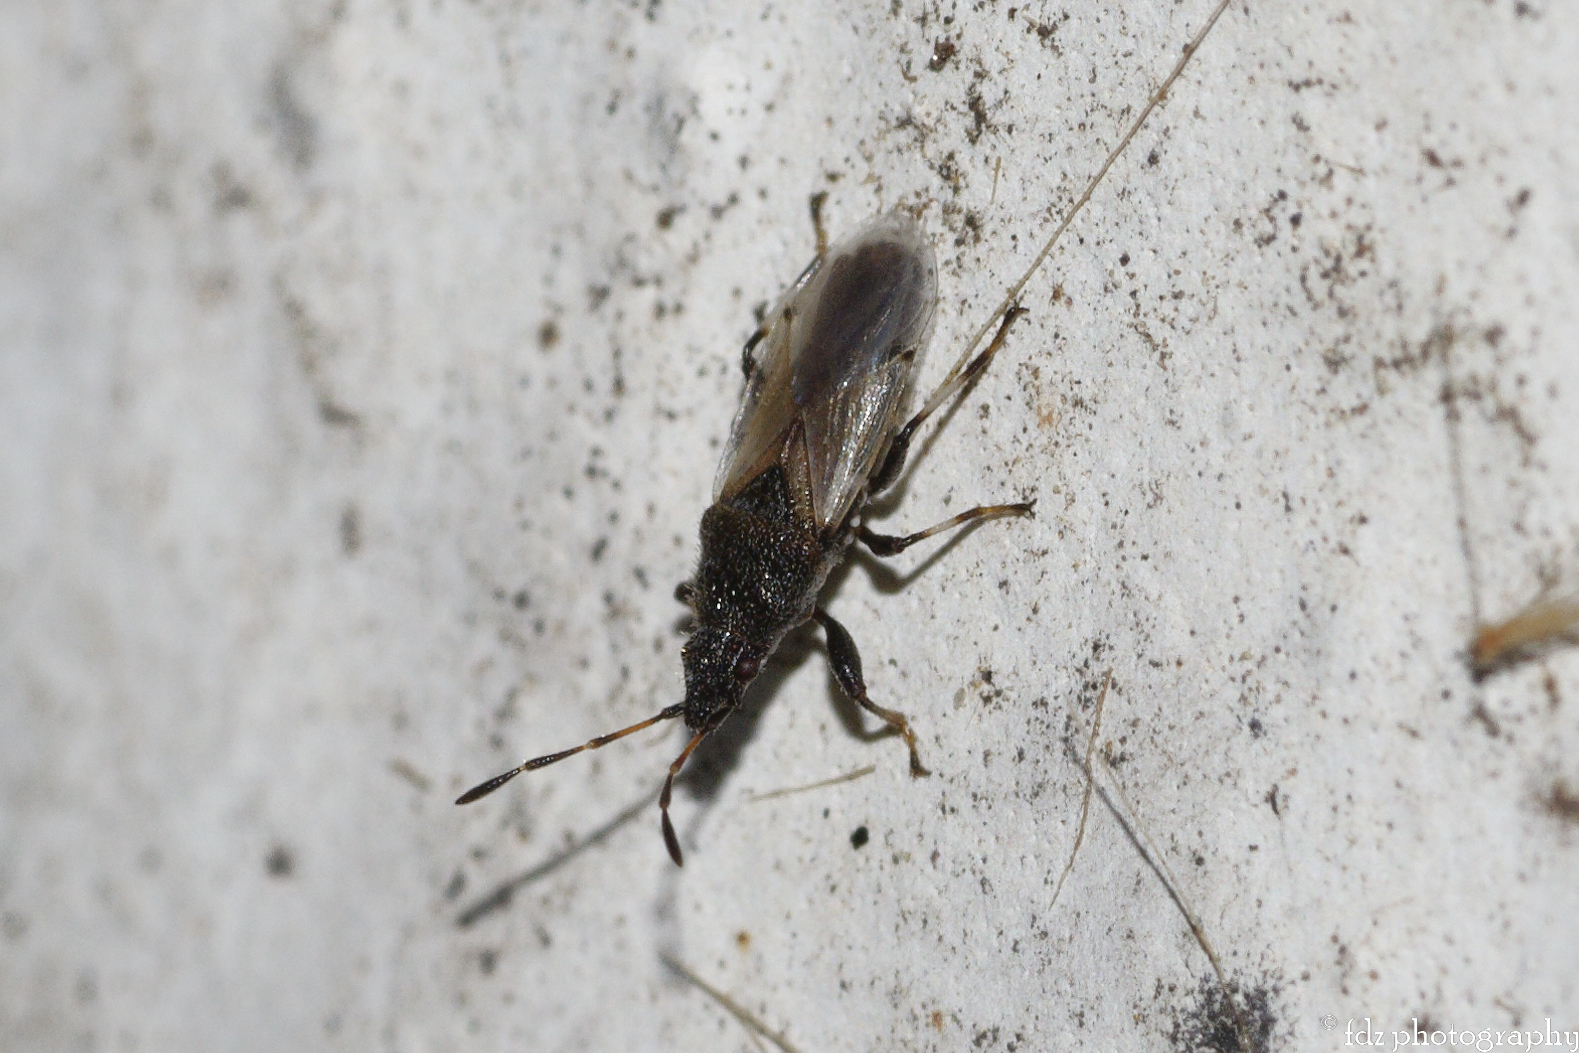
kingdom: Animalia
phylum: Arthropoda
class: Insecta
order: Hemiptera
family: Oxycarenidae
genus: Oxycarenus
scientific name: Oxycarenus hyalinipennis
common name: Cotton seed bug
